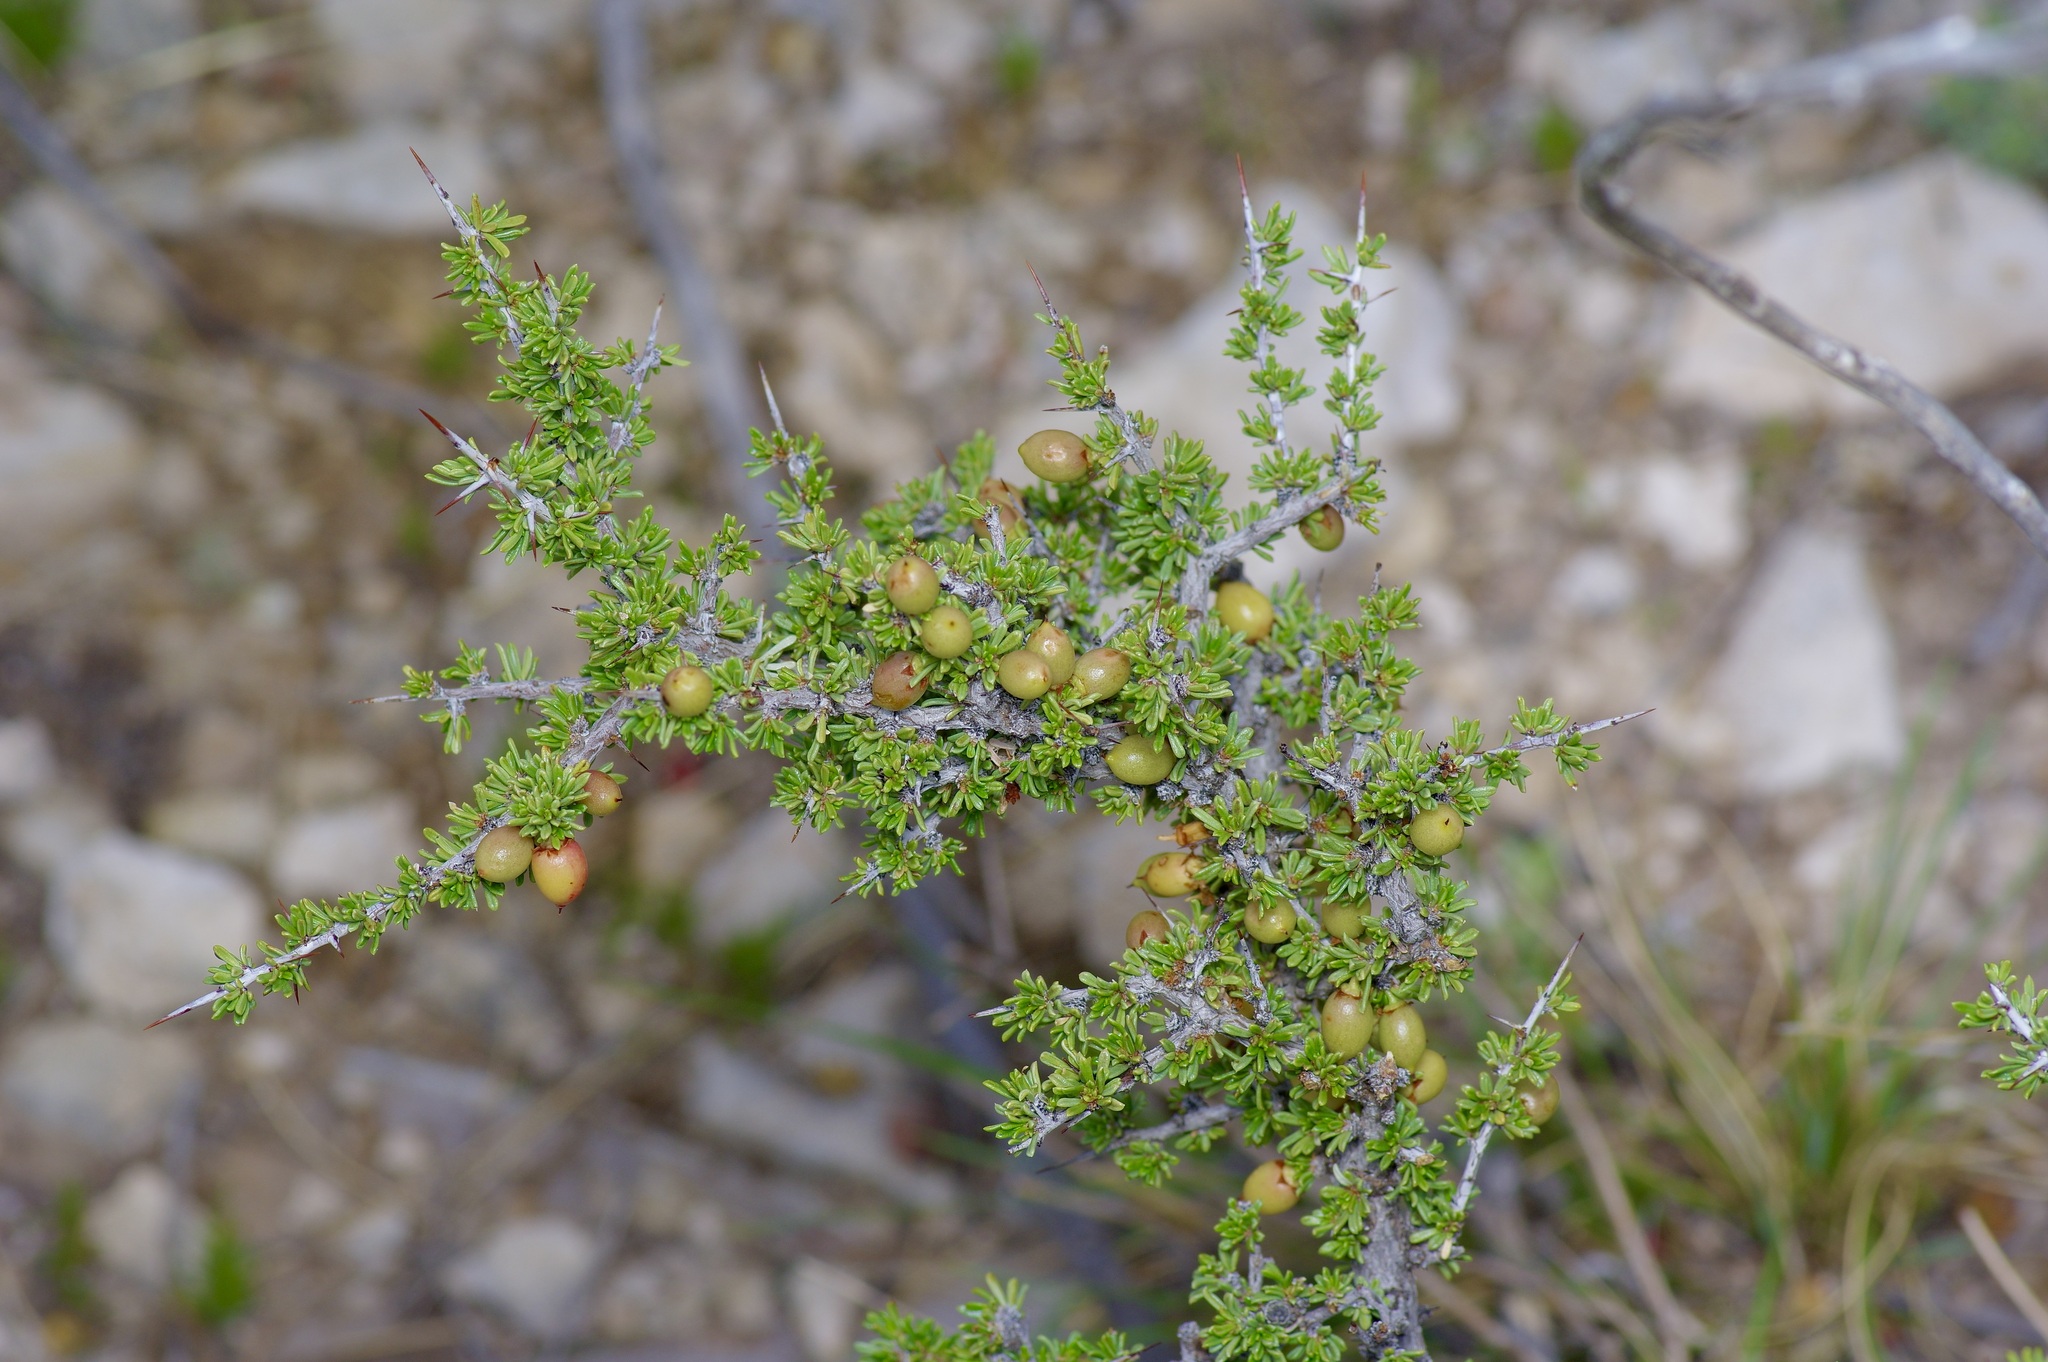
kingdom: Plantae
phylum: Tracheophyta
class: Magnoliopsida
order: Rosales
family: Rhamnaceae
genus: Condalia
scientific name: Condalia ericoides
